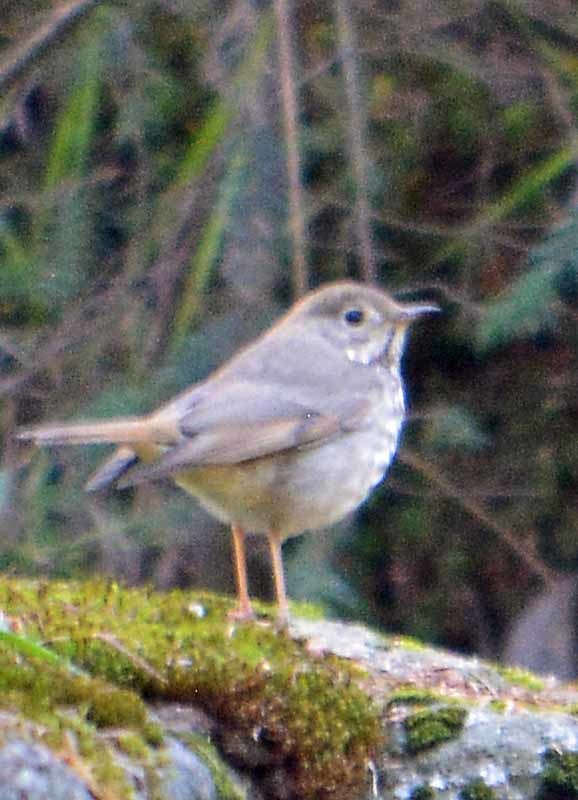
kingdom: Animalia
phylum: Chordata
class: Aves
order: Passeriformes
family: Turdidae
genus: Catharus
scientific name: Catharus guttatus
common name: Hermit thrush
